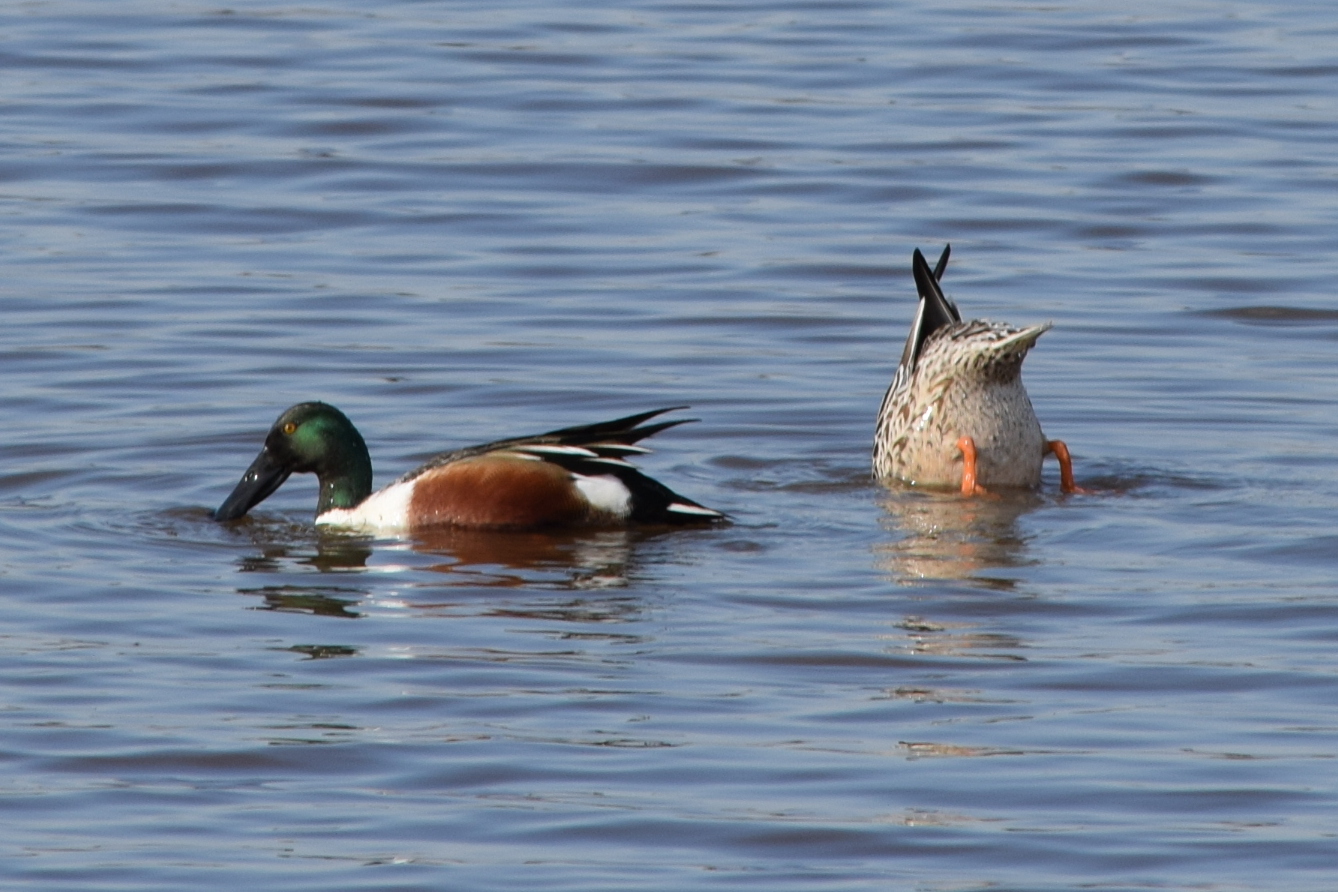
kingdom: Animalia
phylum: Chordata
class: Aves
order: Anseriformes
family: Anatidae
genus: Spatula
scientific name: Spatula clypeata
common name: Northern shoveler
